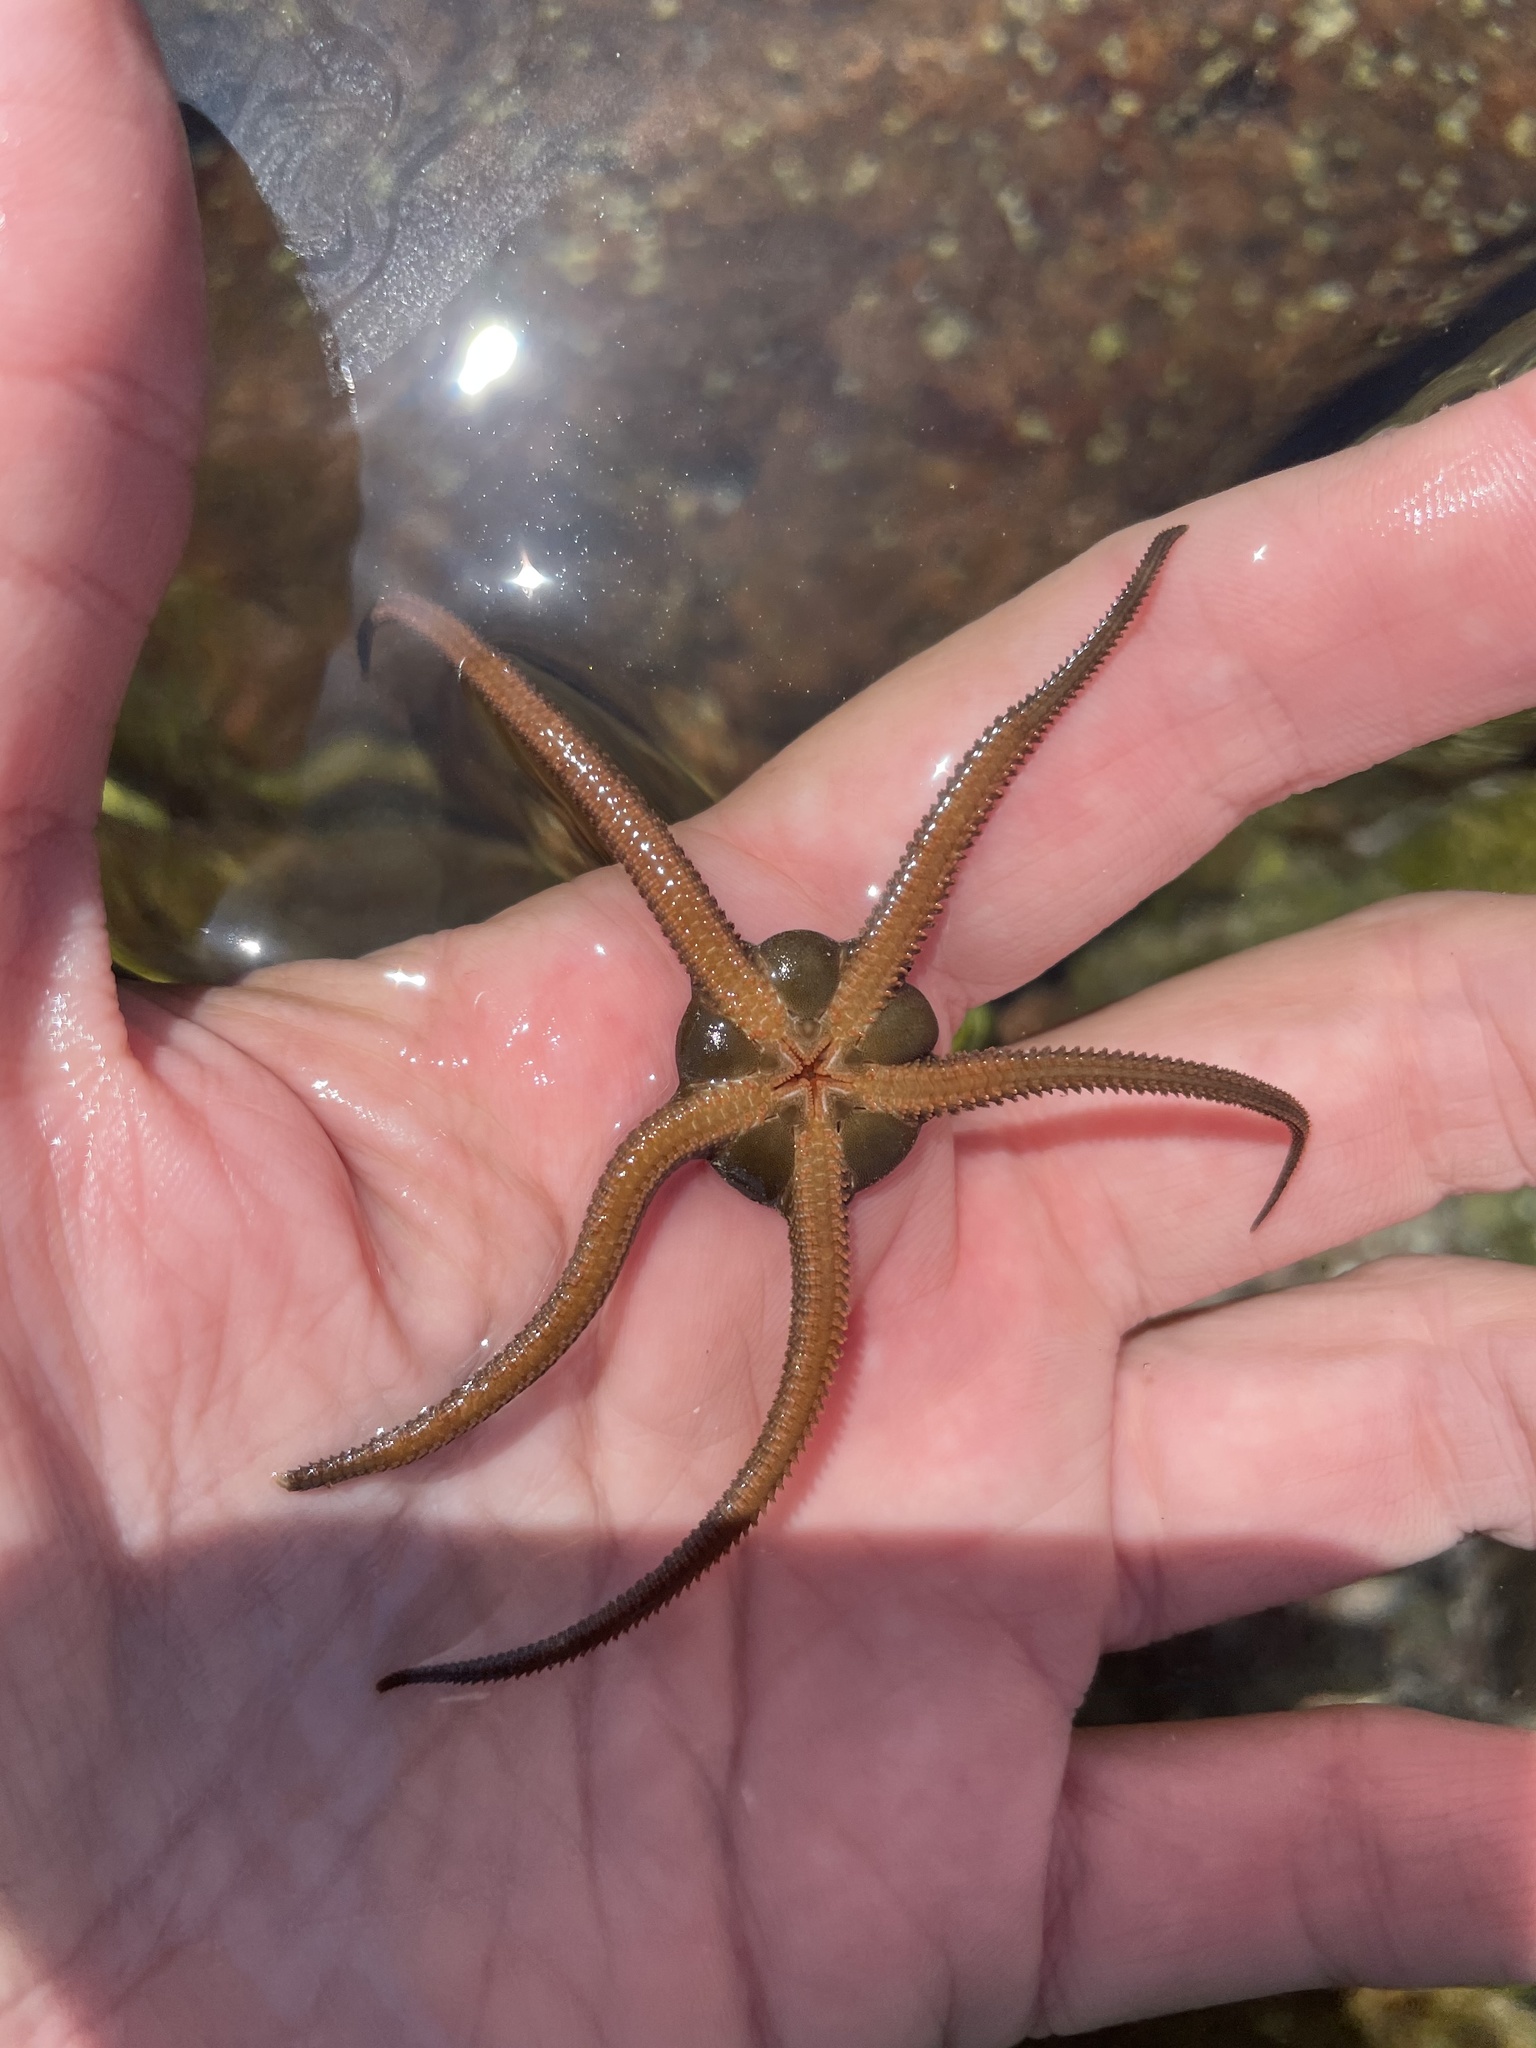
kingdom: Animalia
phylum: Echinodermata
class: Ophiuroidea
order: Amphilepidida
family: Hemieuryalidae
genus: Ophioplocus
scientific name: Ophioplocus esmarki
